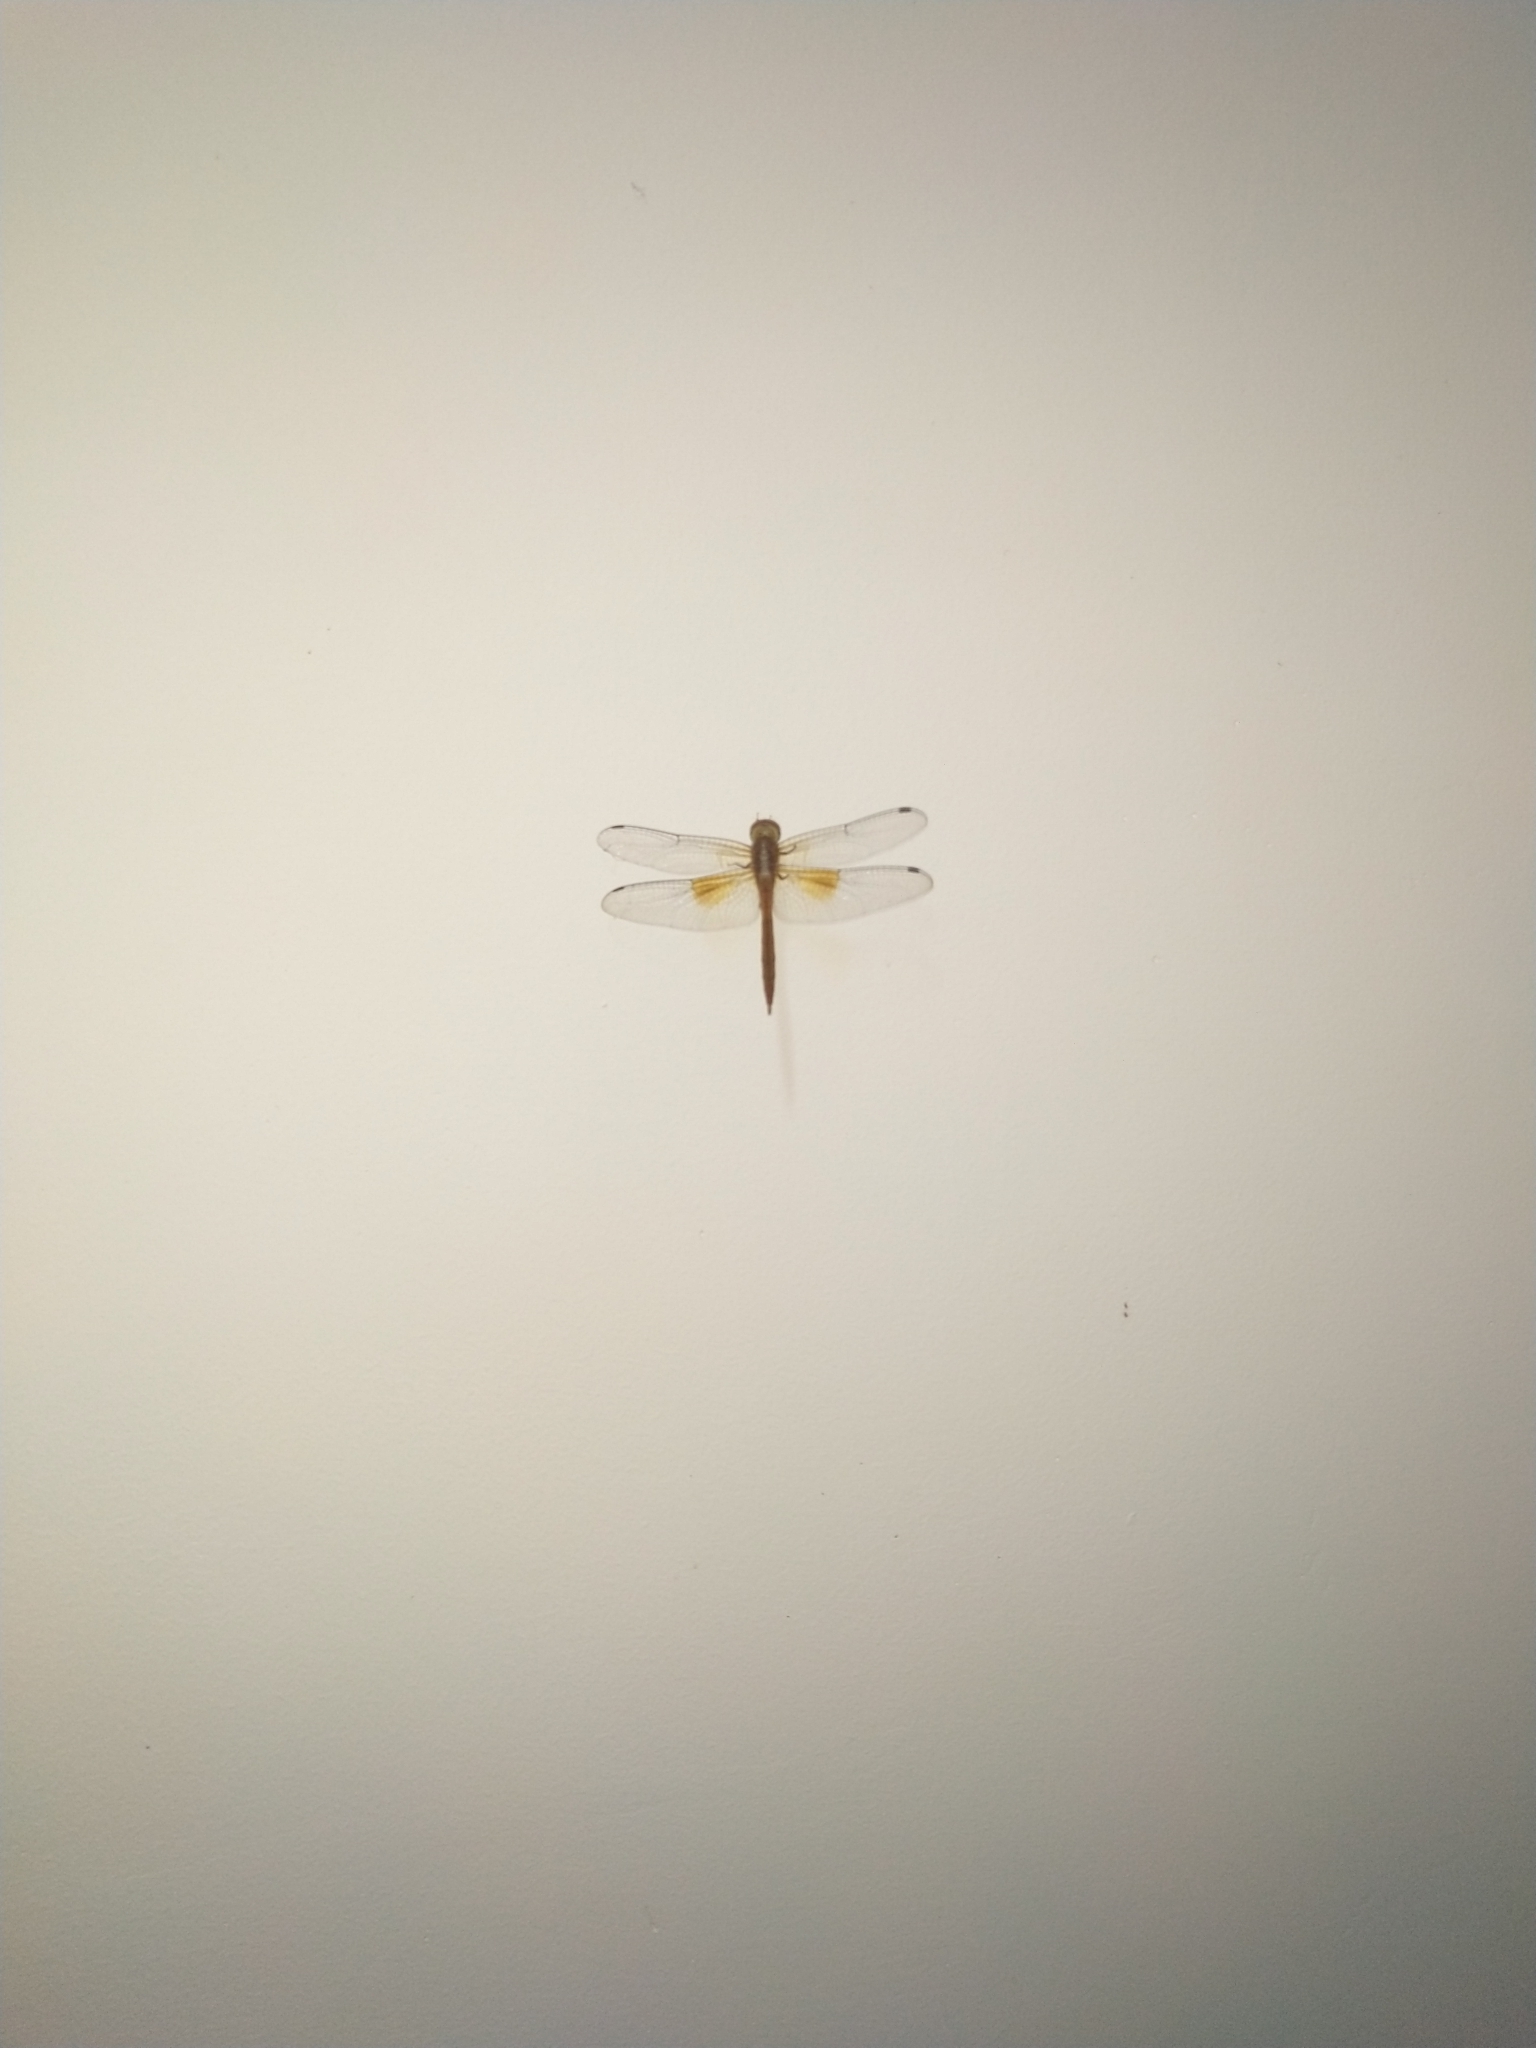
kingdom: Animalia
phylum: Arthropoda
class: Insecta
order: Odonata
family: Libellulidae
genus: Tholymis
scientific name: Tholymis tillarga
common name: Coral-tailed cloud wing
